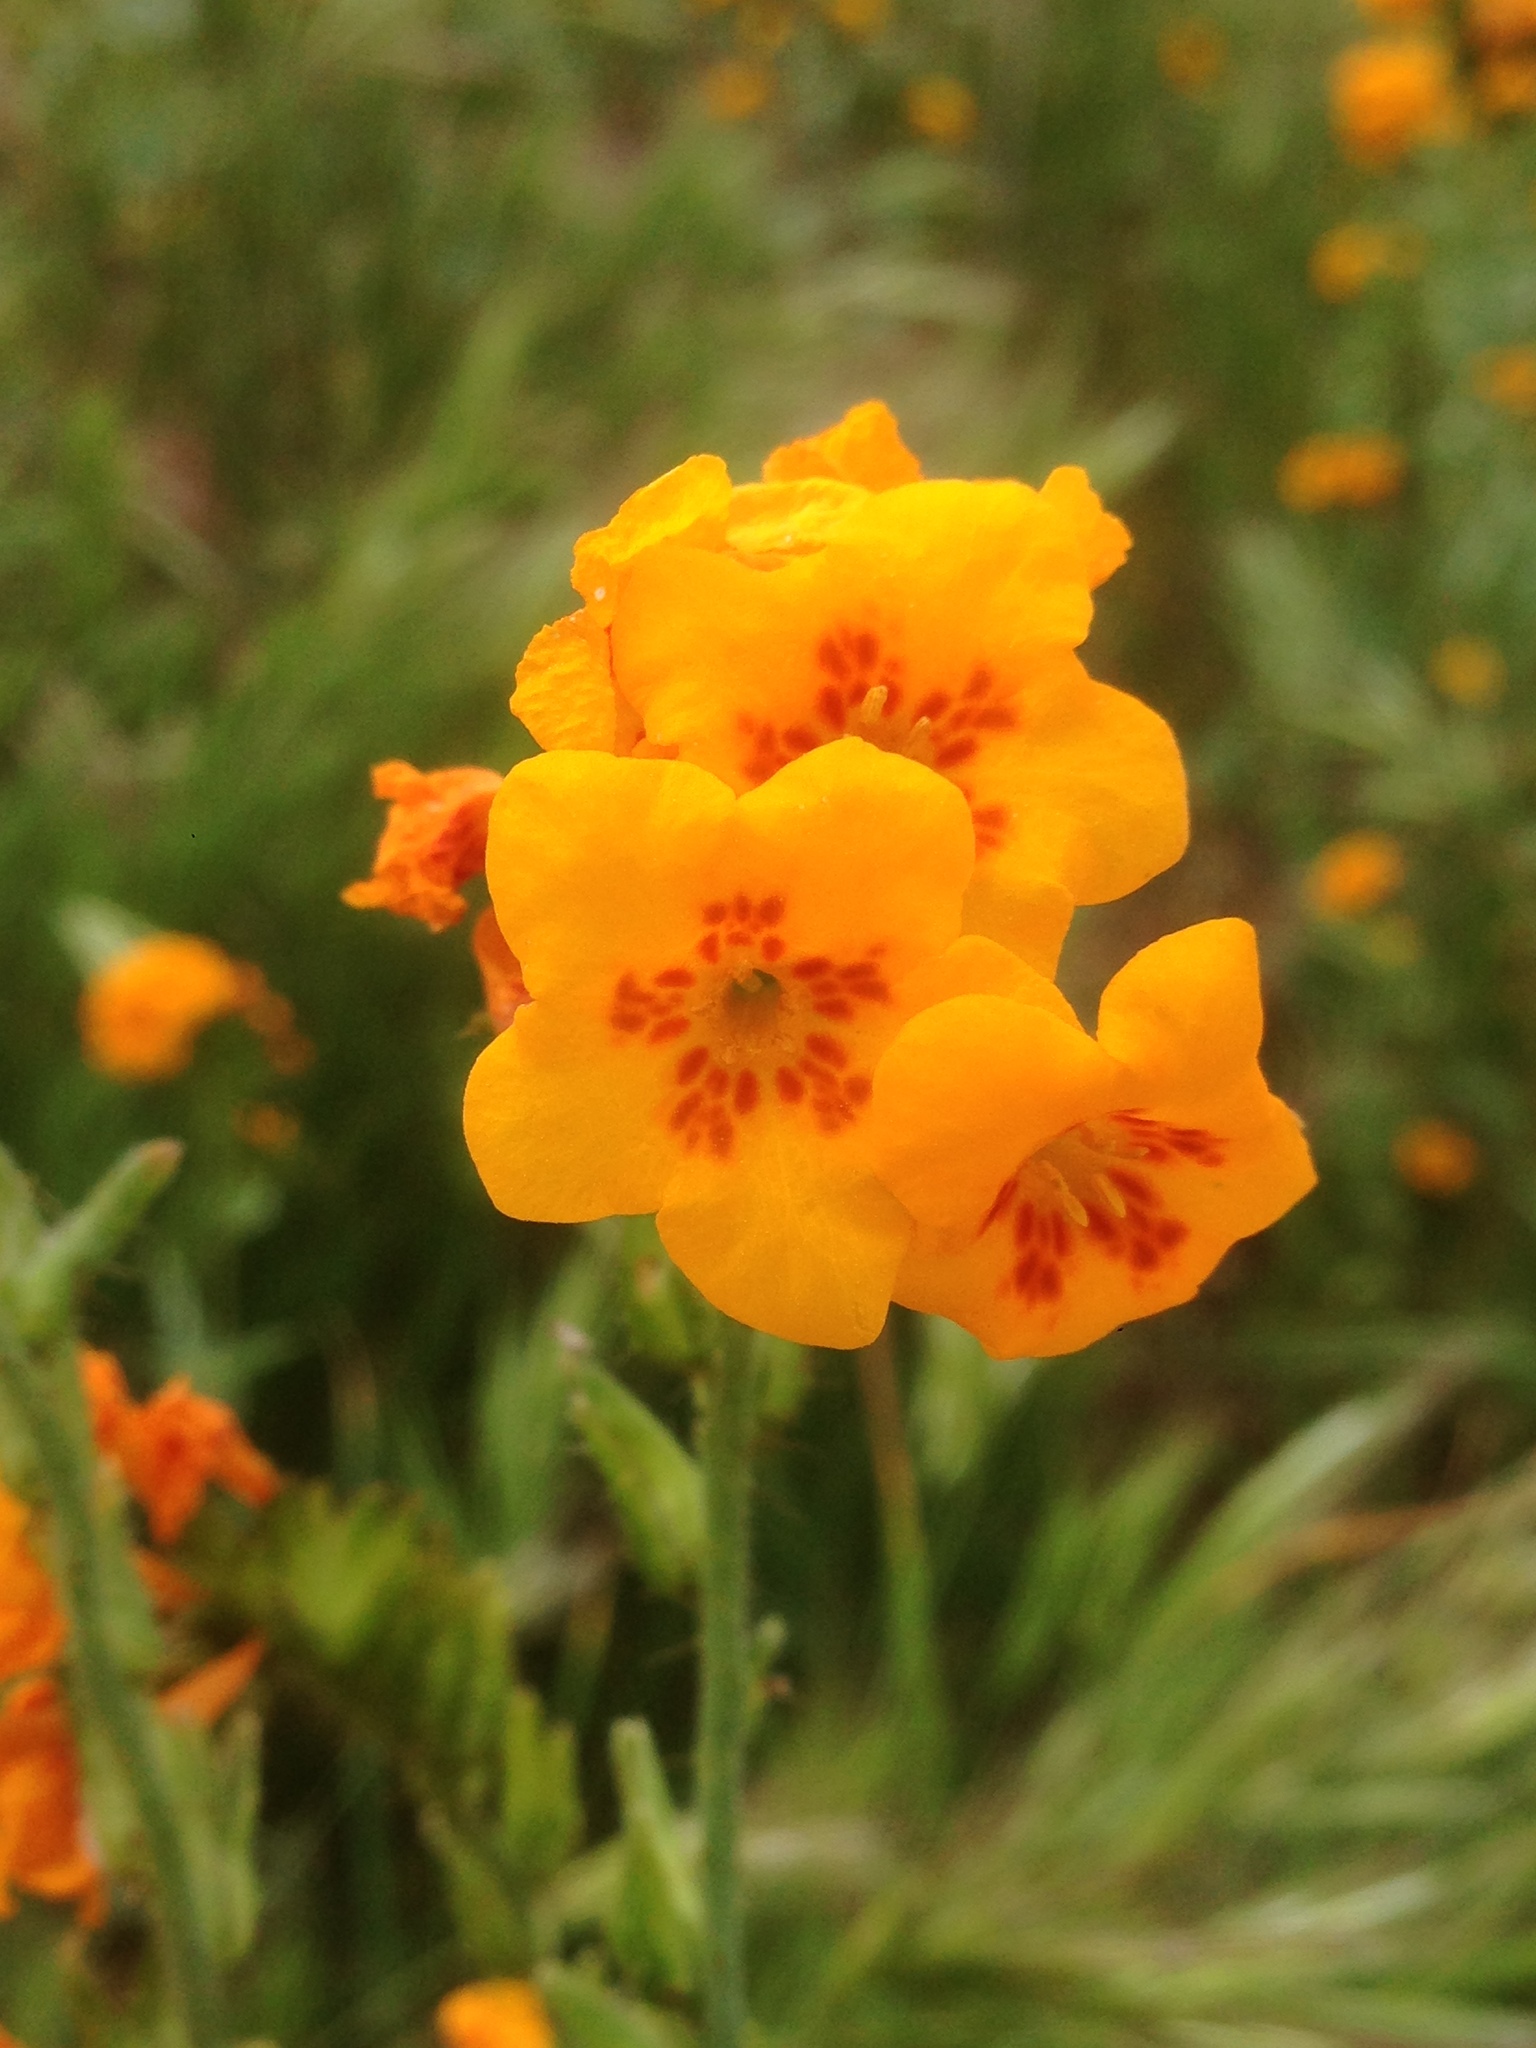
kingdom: Plantae
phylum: Tracheophyta
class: Magnoliopsida
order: Boraginales
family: Boraginaceae
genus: Amsinckia
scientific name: Amsinckia vernicosa
